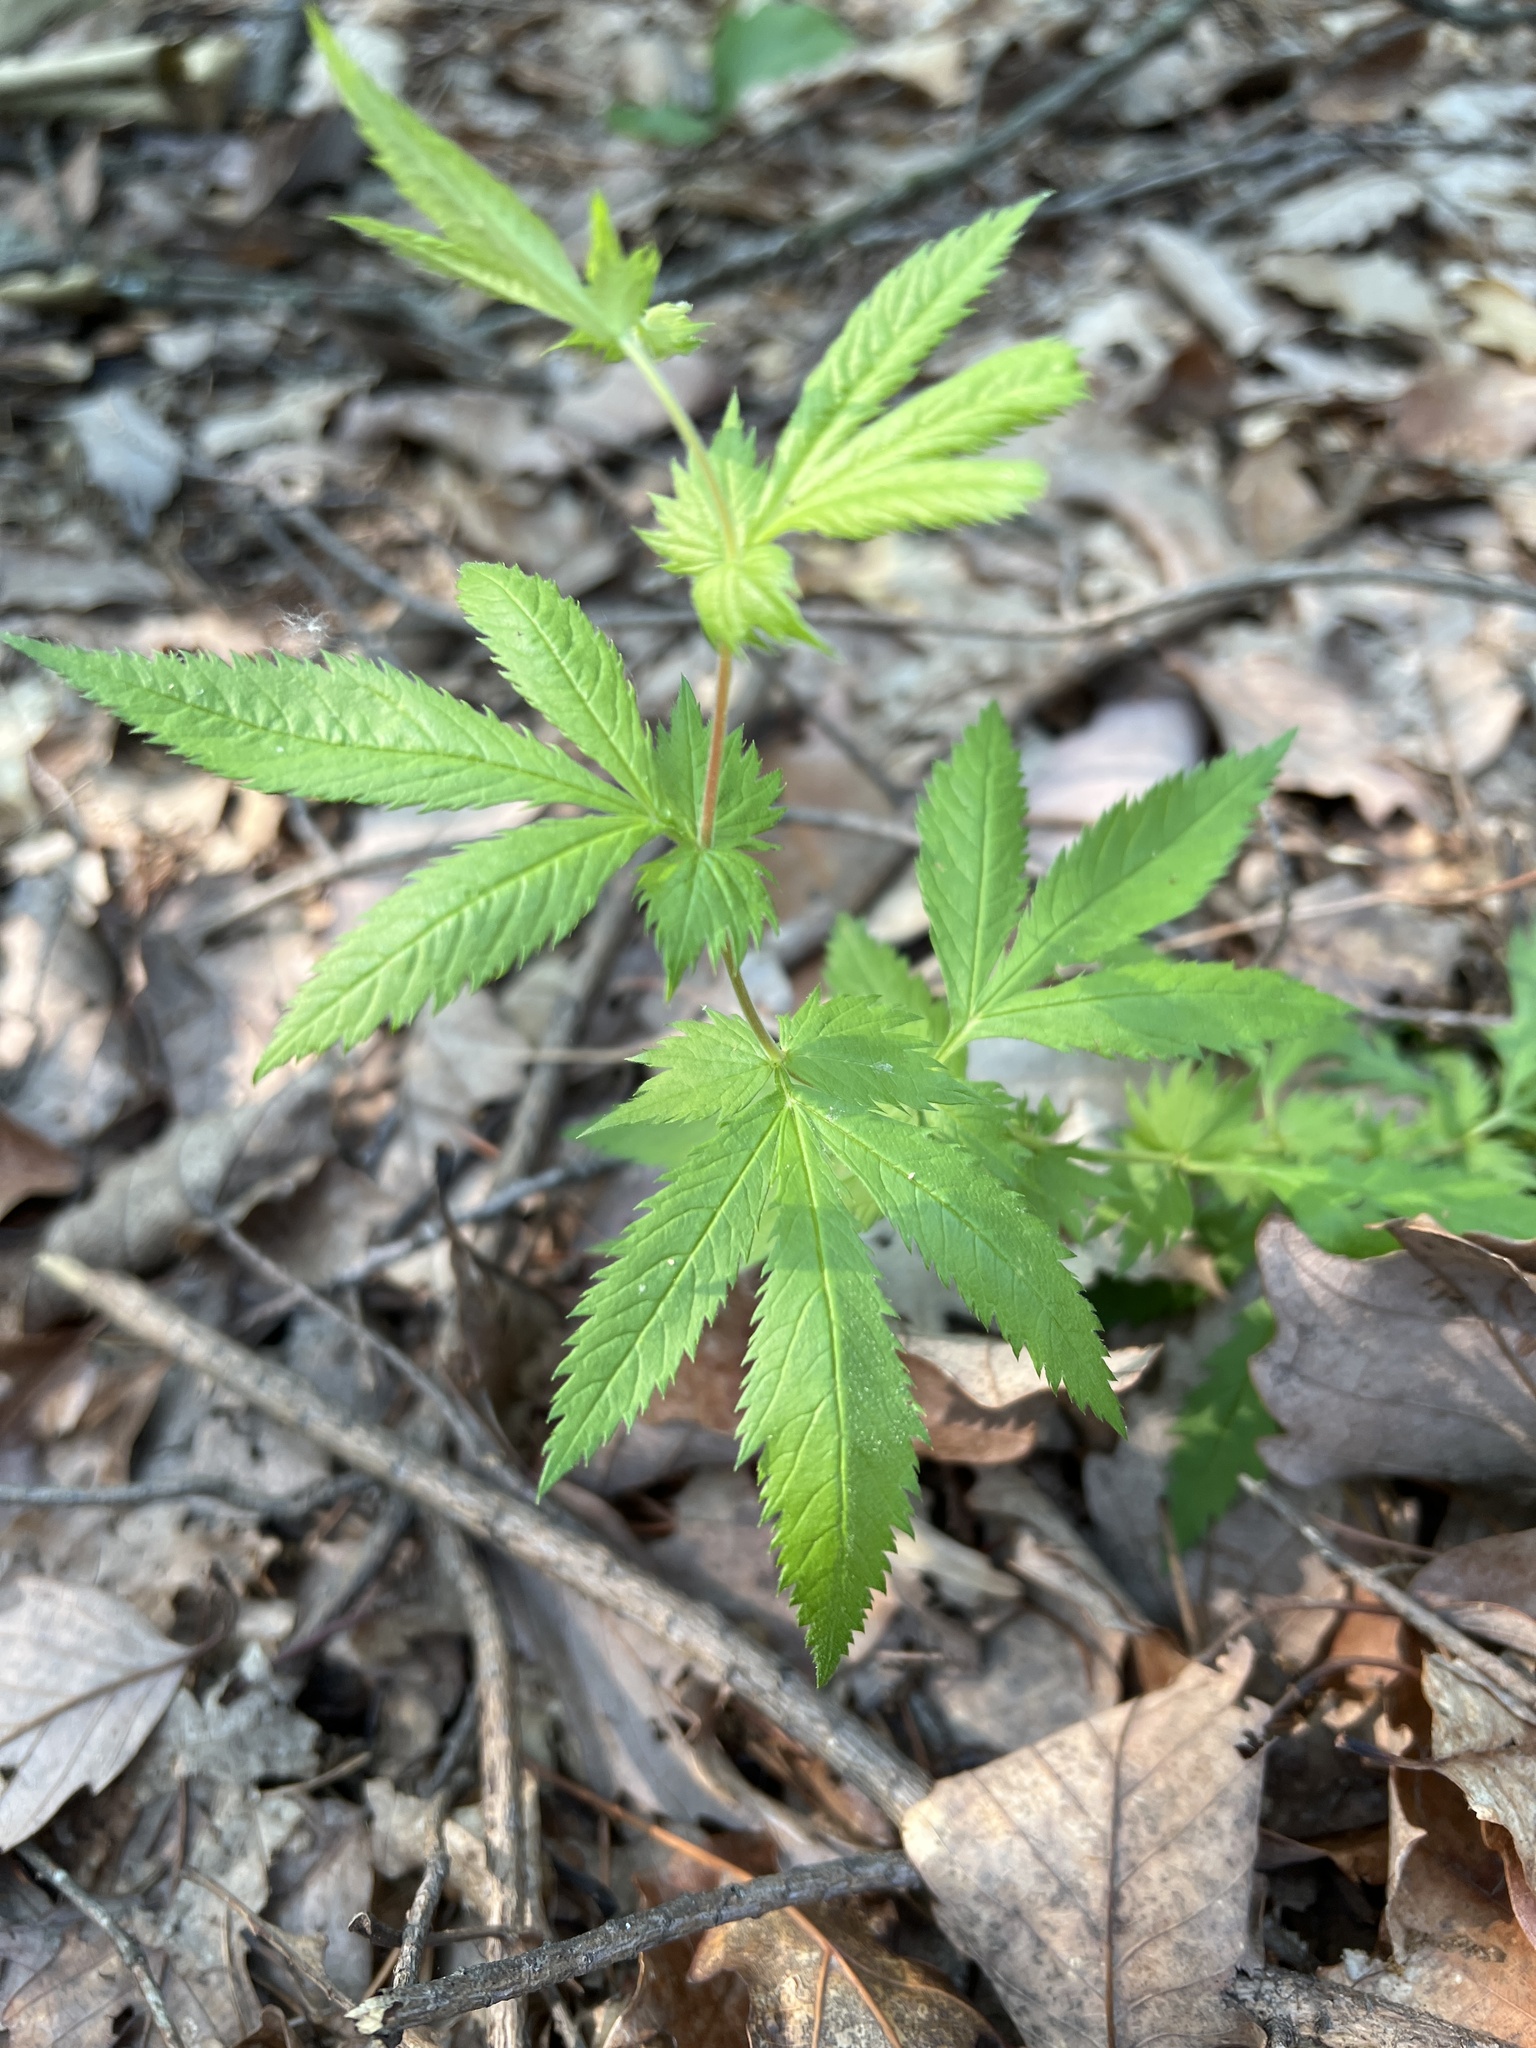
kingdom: Plantae
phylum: Tracheophyta
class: Magnoliopsida
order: Rosales
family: Rosaceae
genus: Gillenia
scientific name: Gillenia stipulata
